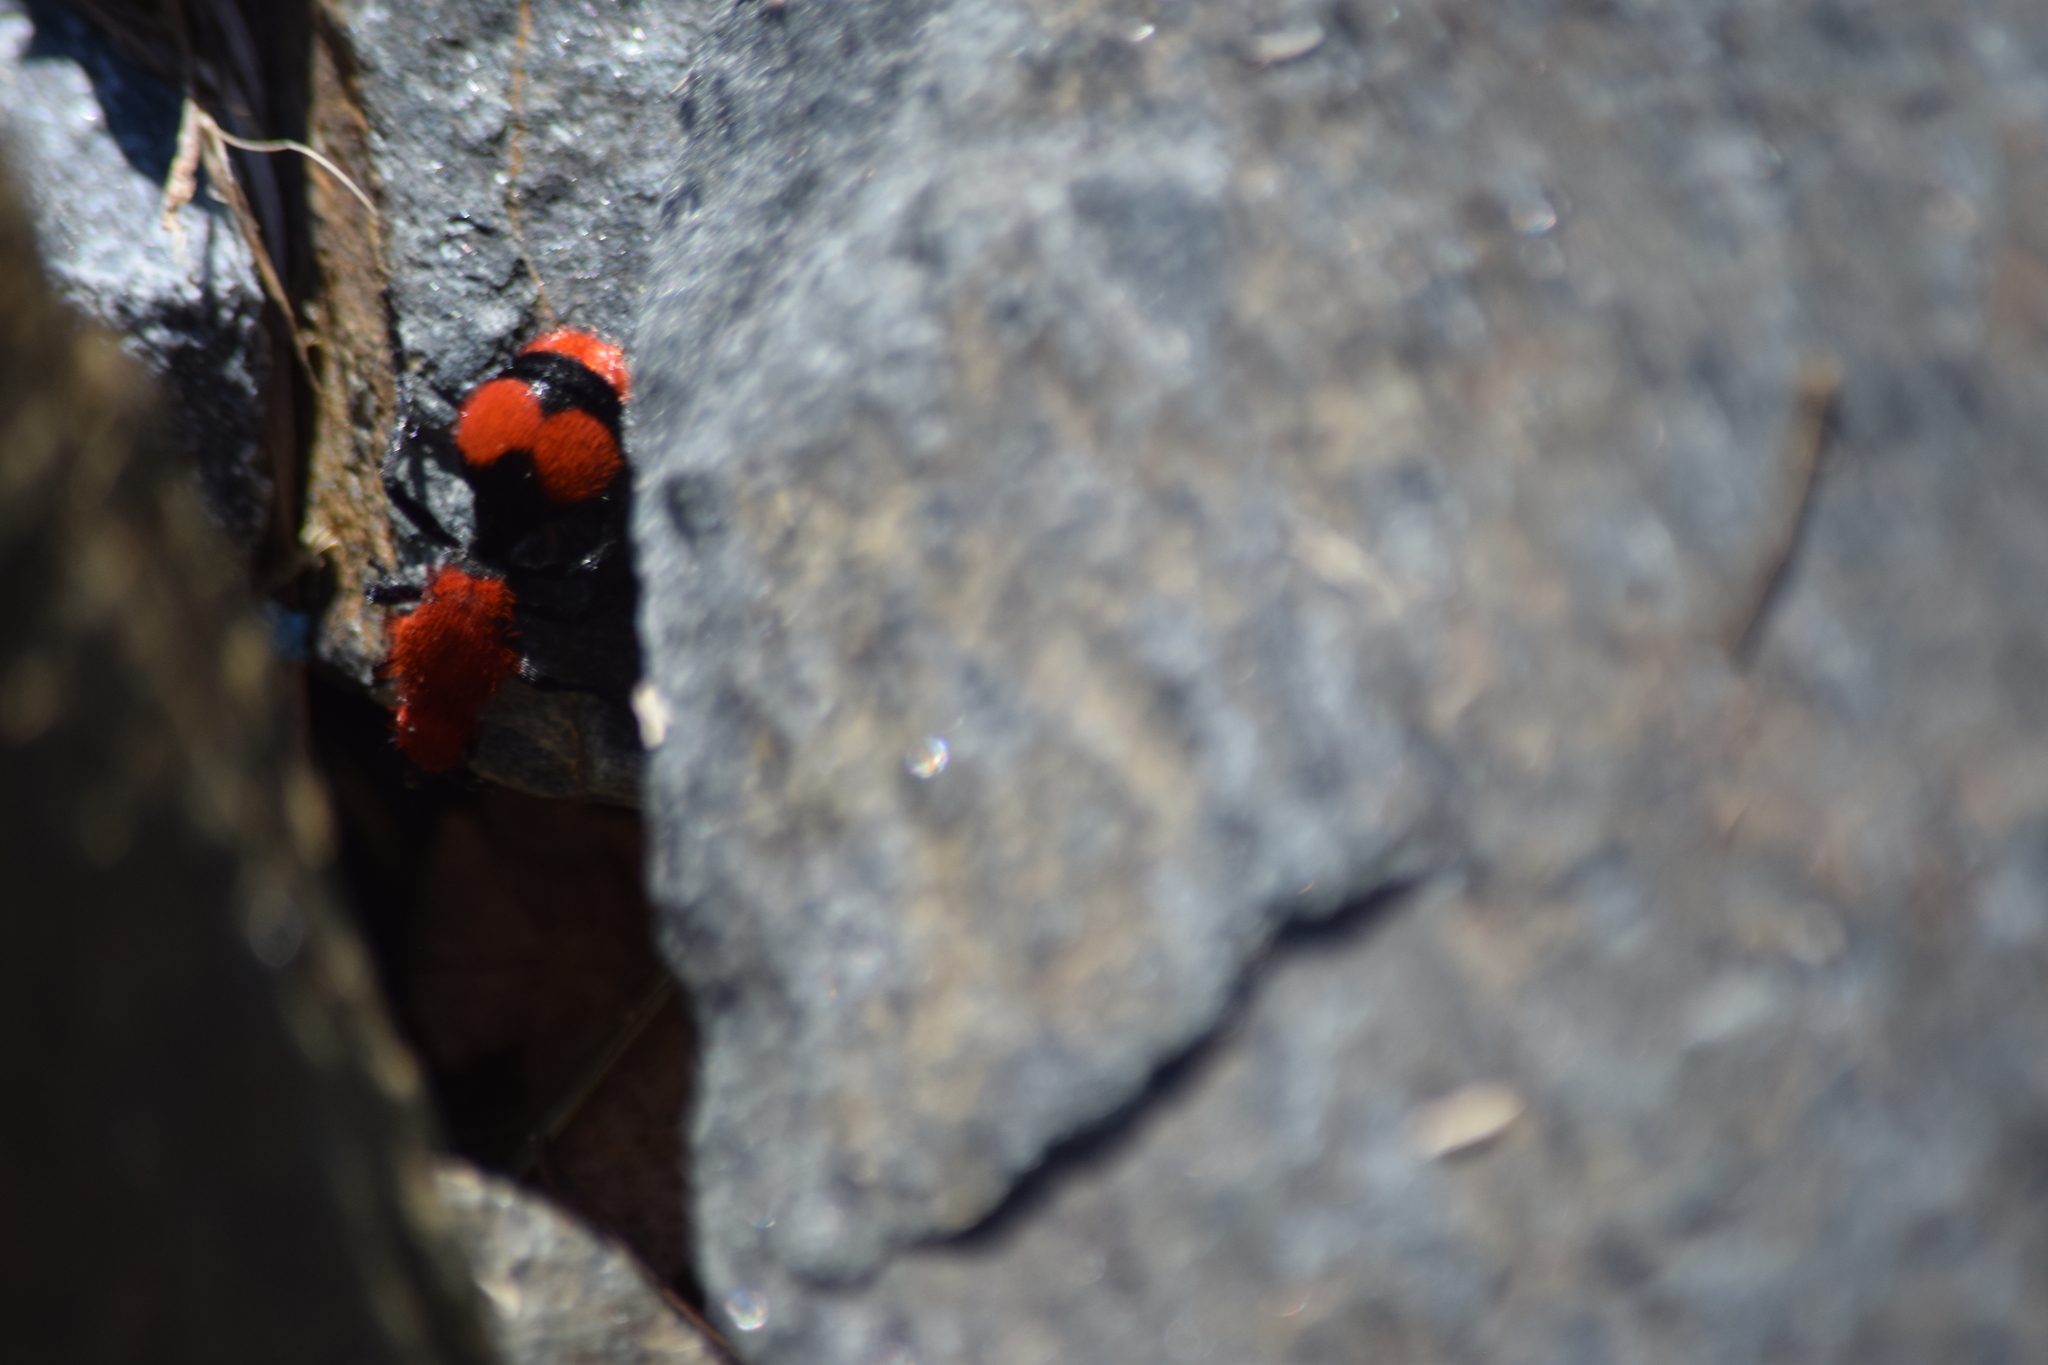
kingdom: Animalia
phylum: Arthropoda
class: Insecta
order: Hymenoptera
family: Mutillidae
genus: Dasymutilla
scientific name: Dasymutilla occidentalis
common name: Common eastern velvet ant
